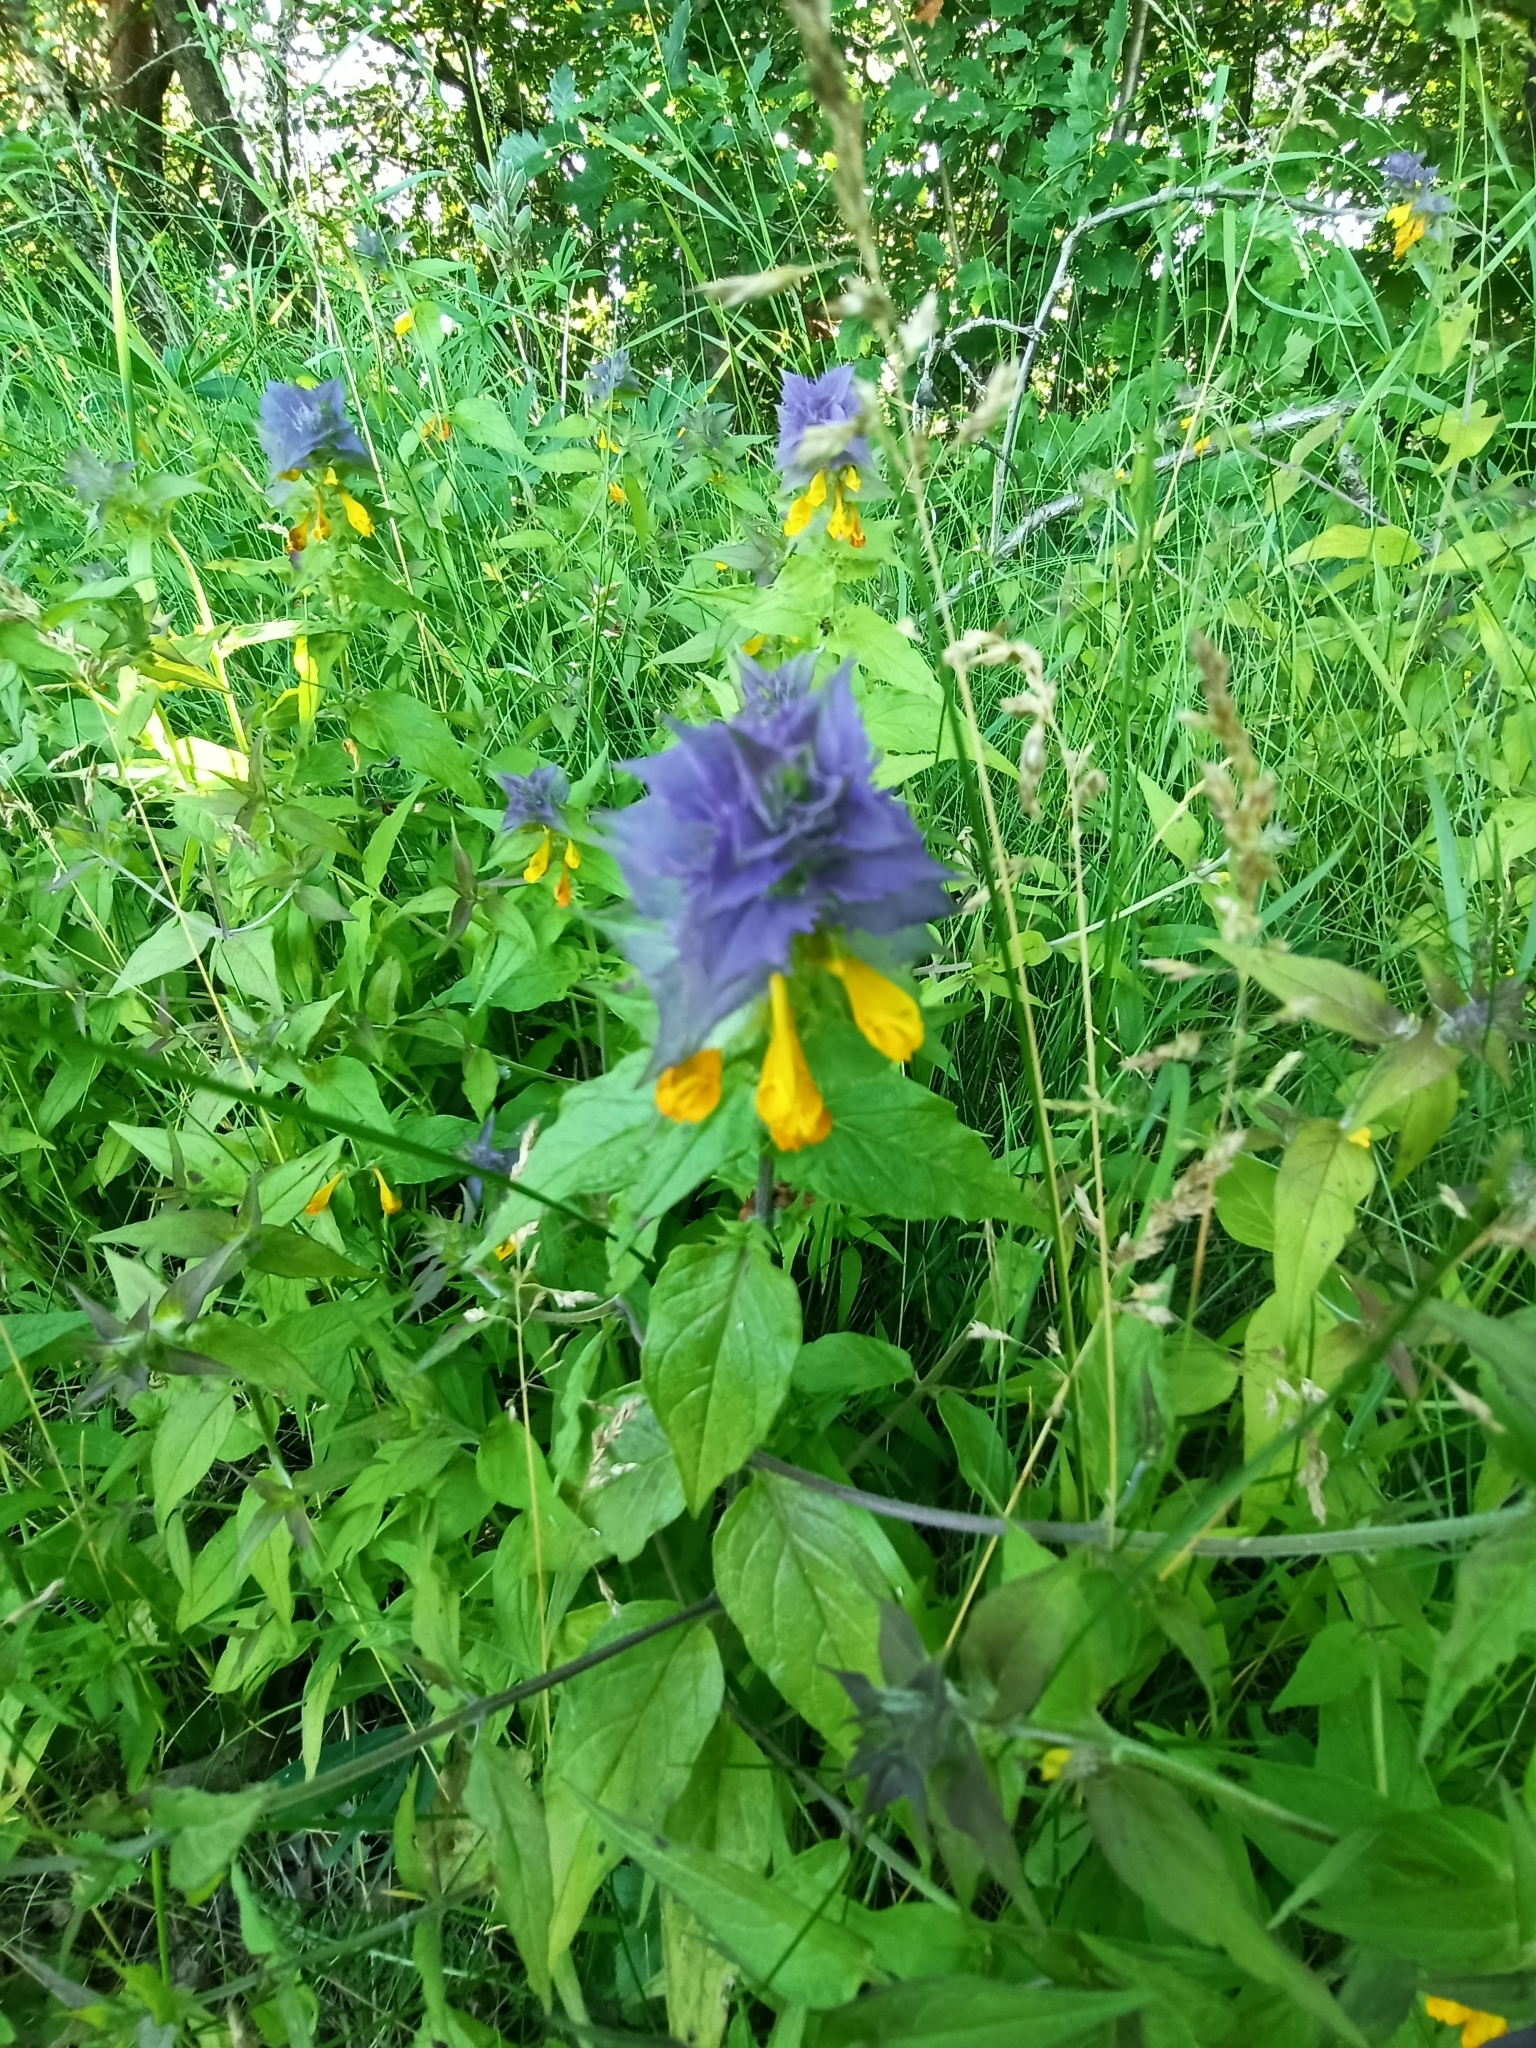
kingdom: Plantae
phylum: Tracheophyta
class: Magnoliopsida
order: Lamiales
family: Orobanchaceae
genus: Melampyrum
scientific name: Melampyrum nemorosum
